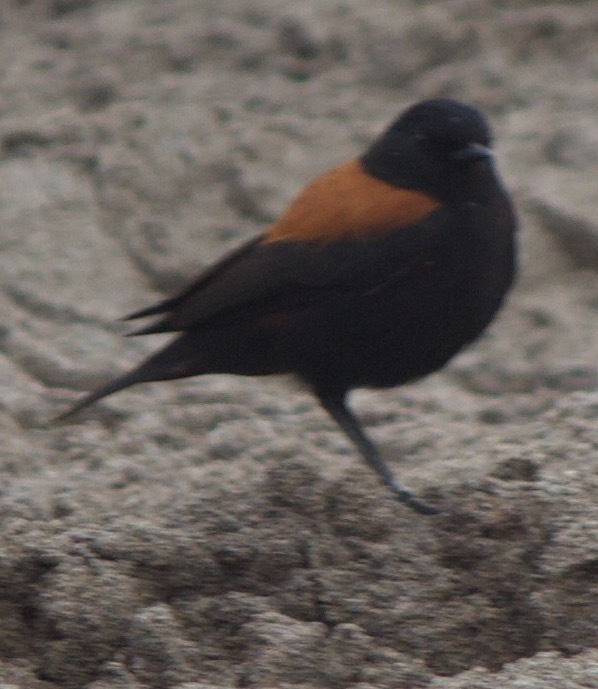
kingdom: Animalia
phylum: Chordata
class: Aves
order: Passeriformes
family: Tyrannidae
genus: Lessonia
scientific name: Lessonia rufa
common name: Austral negrito
